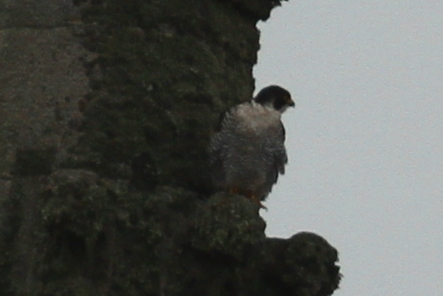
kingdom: Animalia
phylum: Chordata
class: Aves
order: Falconiformes
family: Falconidae
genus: Falco
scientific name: Falco peregrinus
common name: Peregrine falcon
